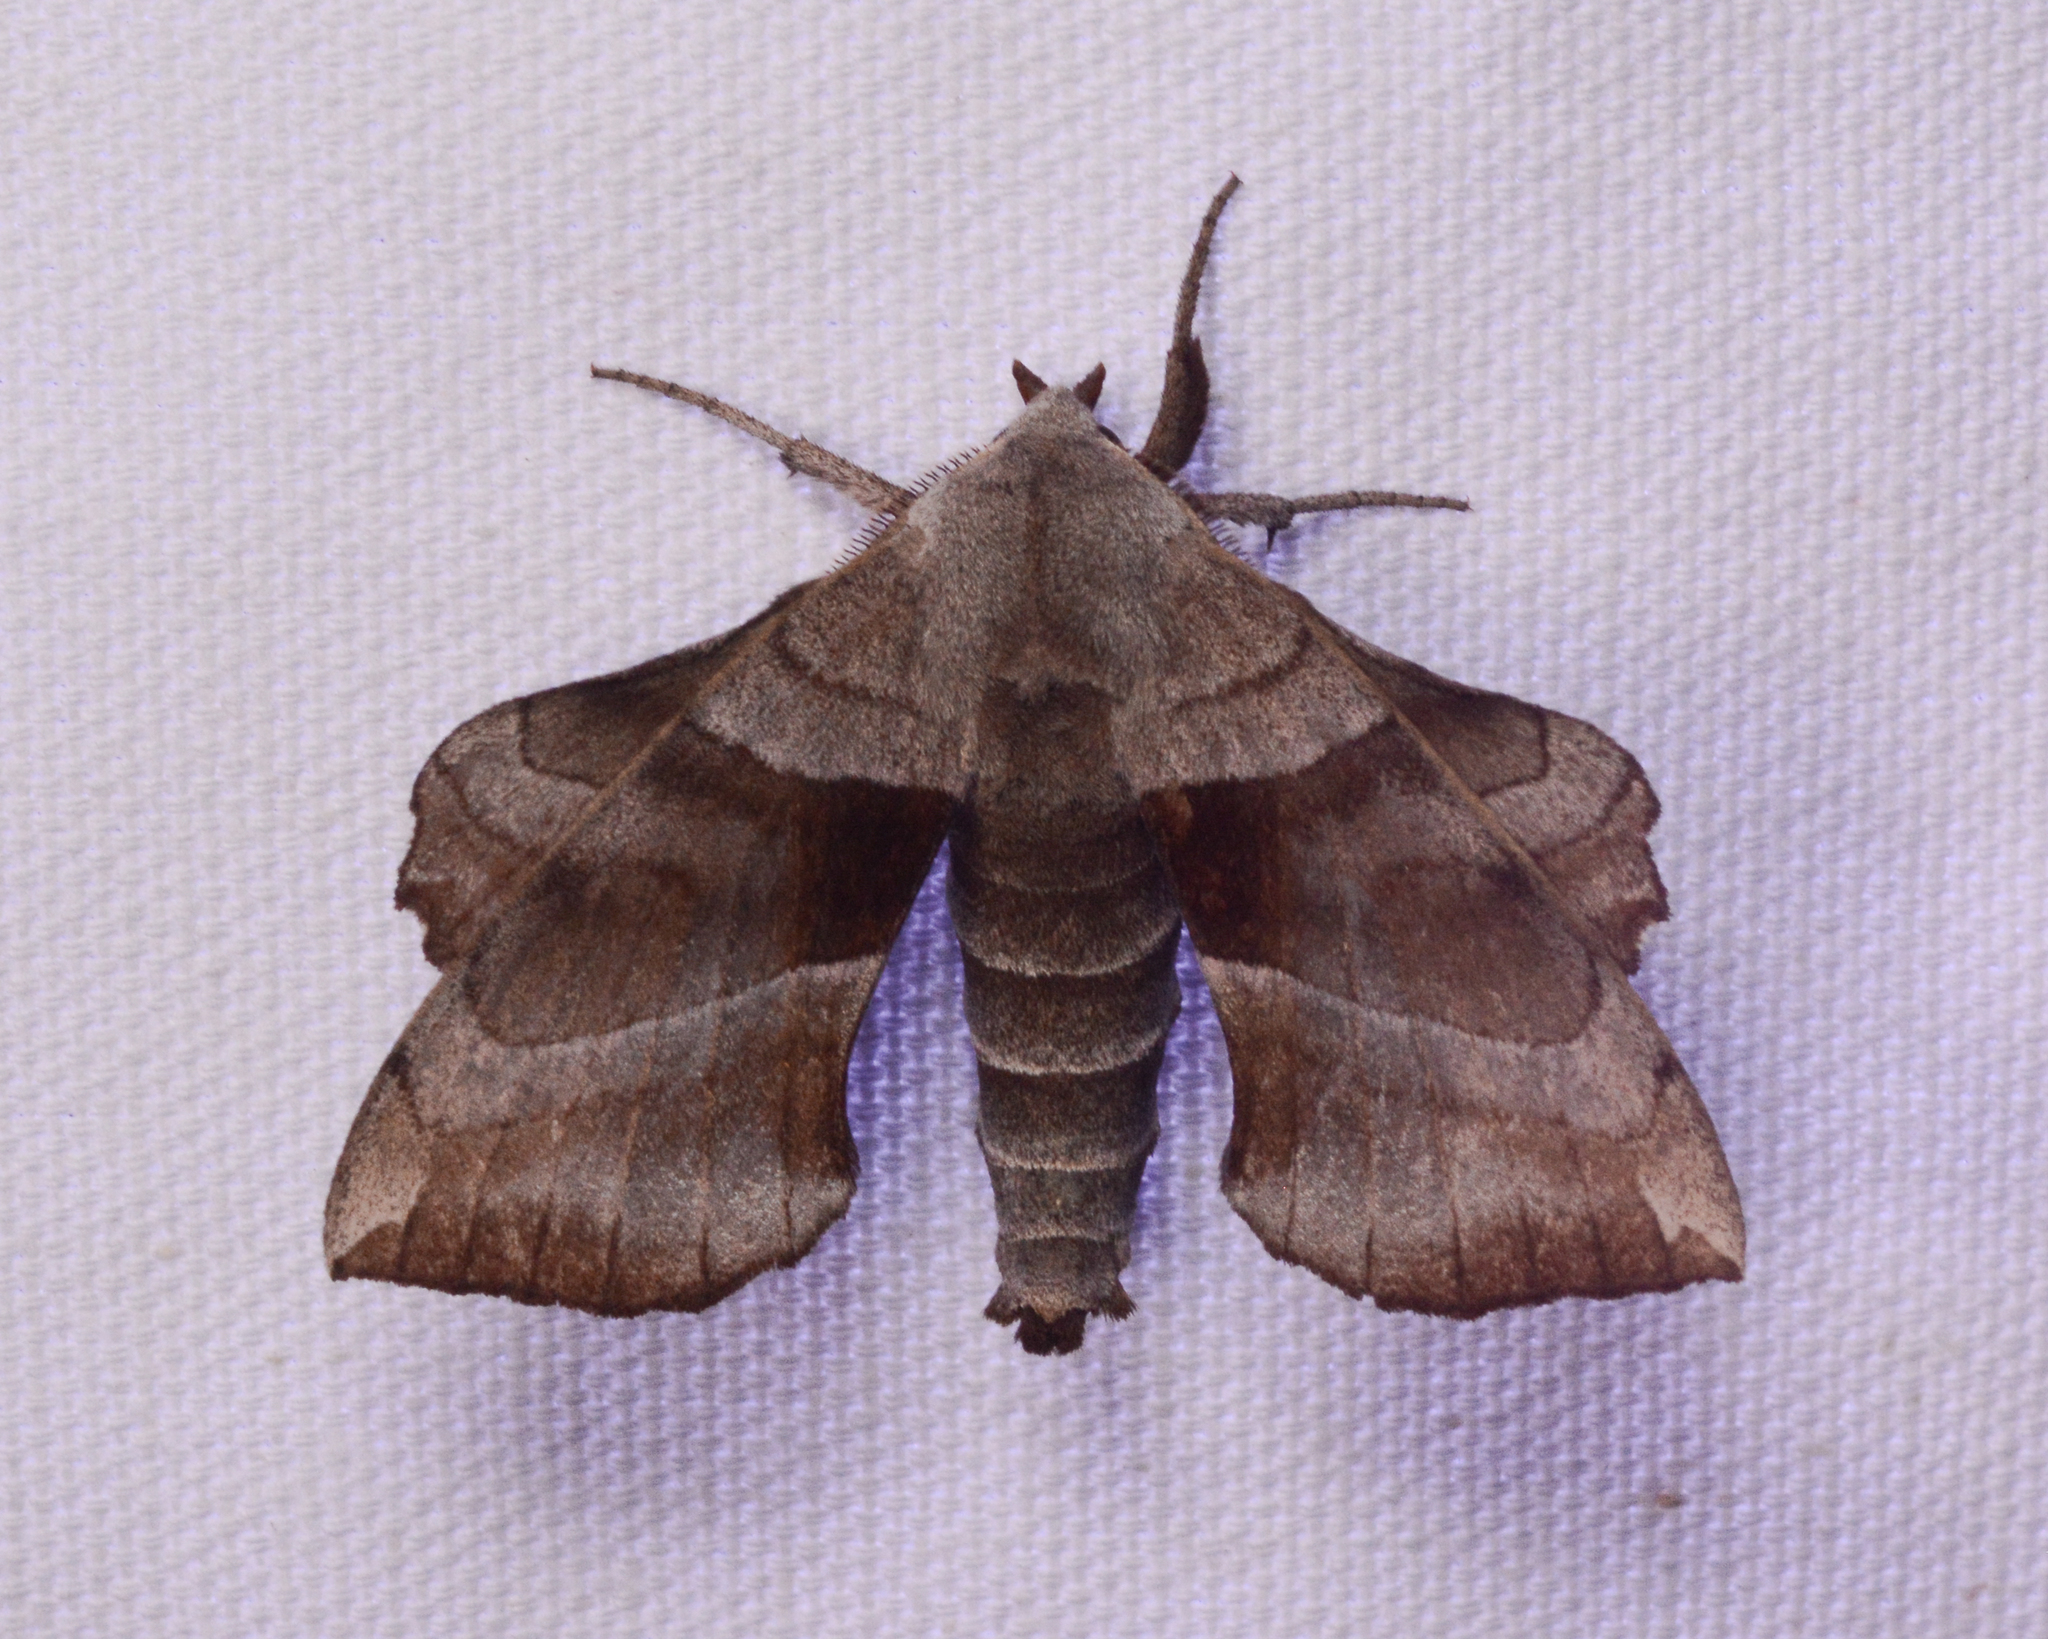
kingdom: Animalia
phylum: Arthropoda
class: Insecta
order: Lepidoptera
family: Sphingidae
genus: Amorpha
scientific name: Amorpha juglandis
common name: Walnut sphinx
